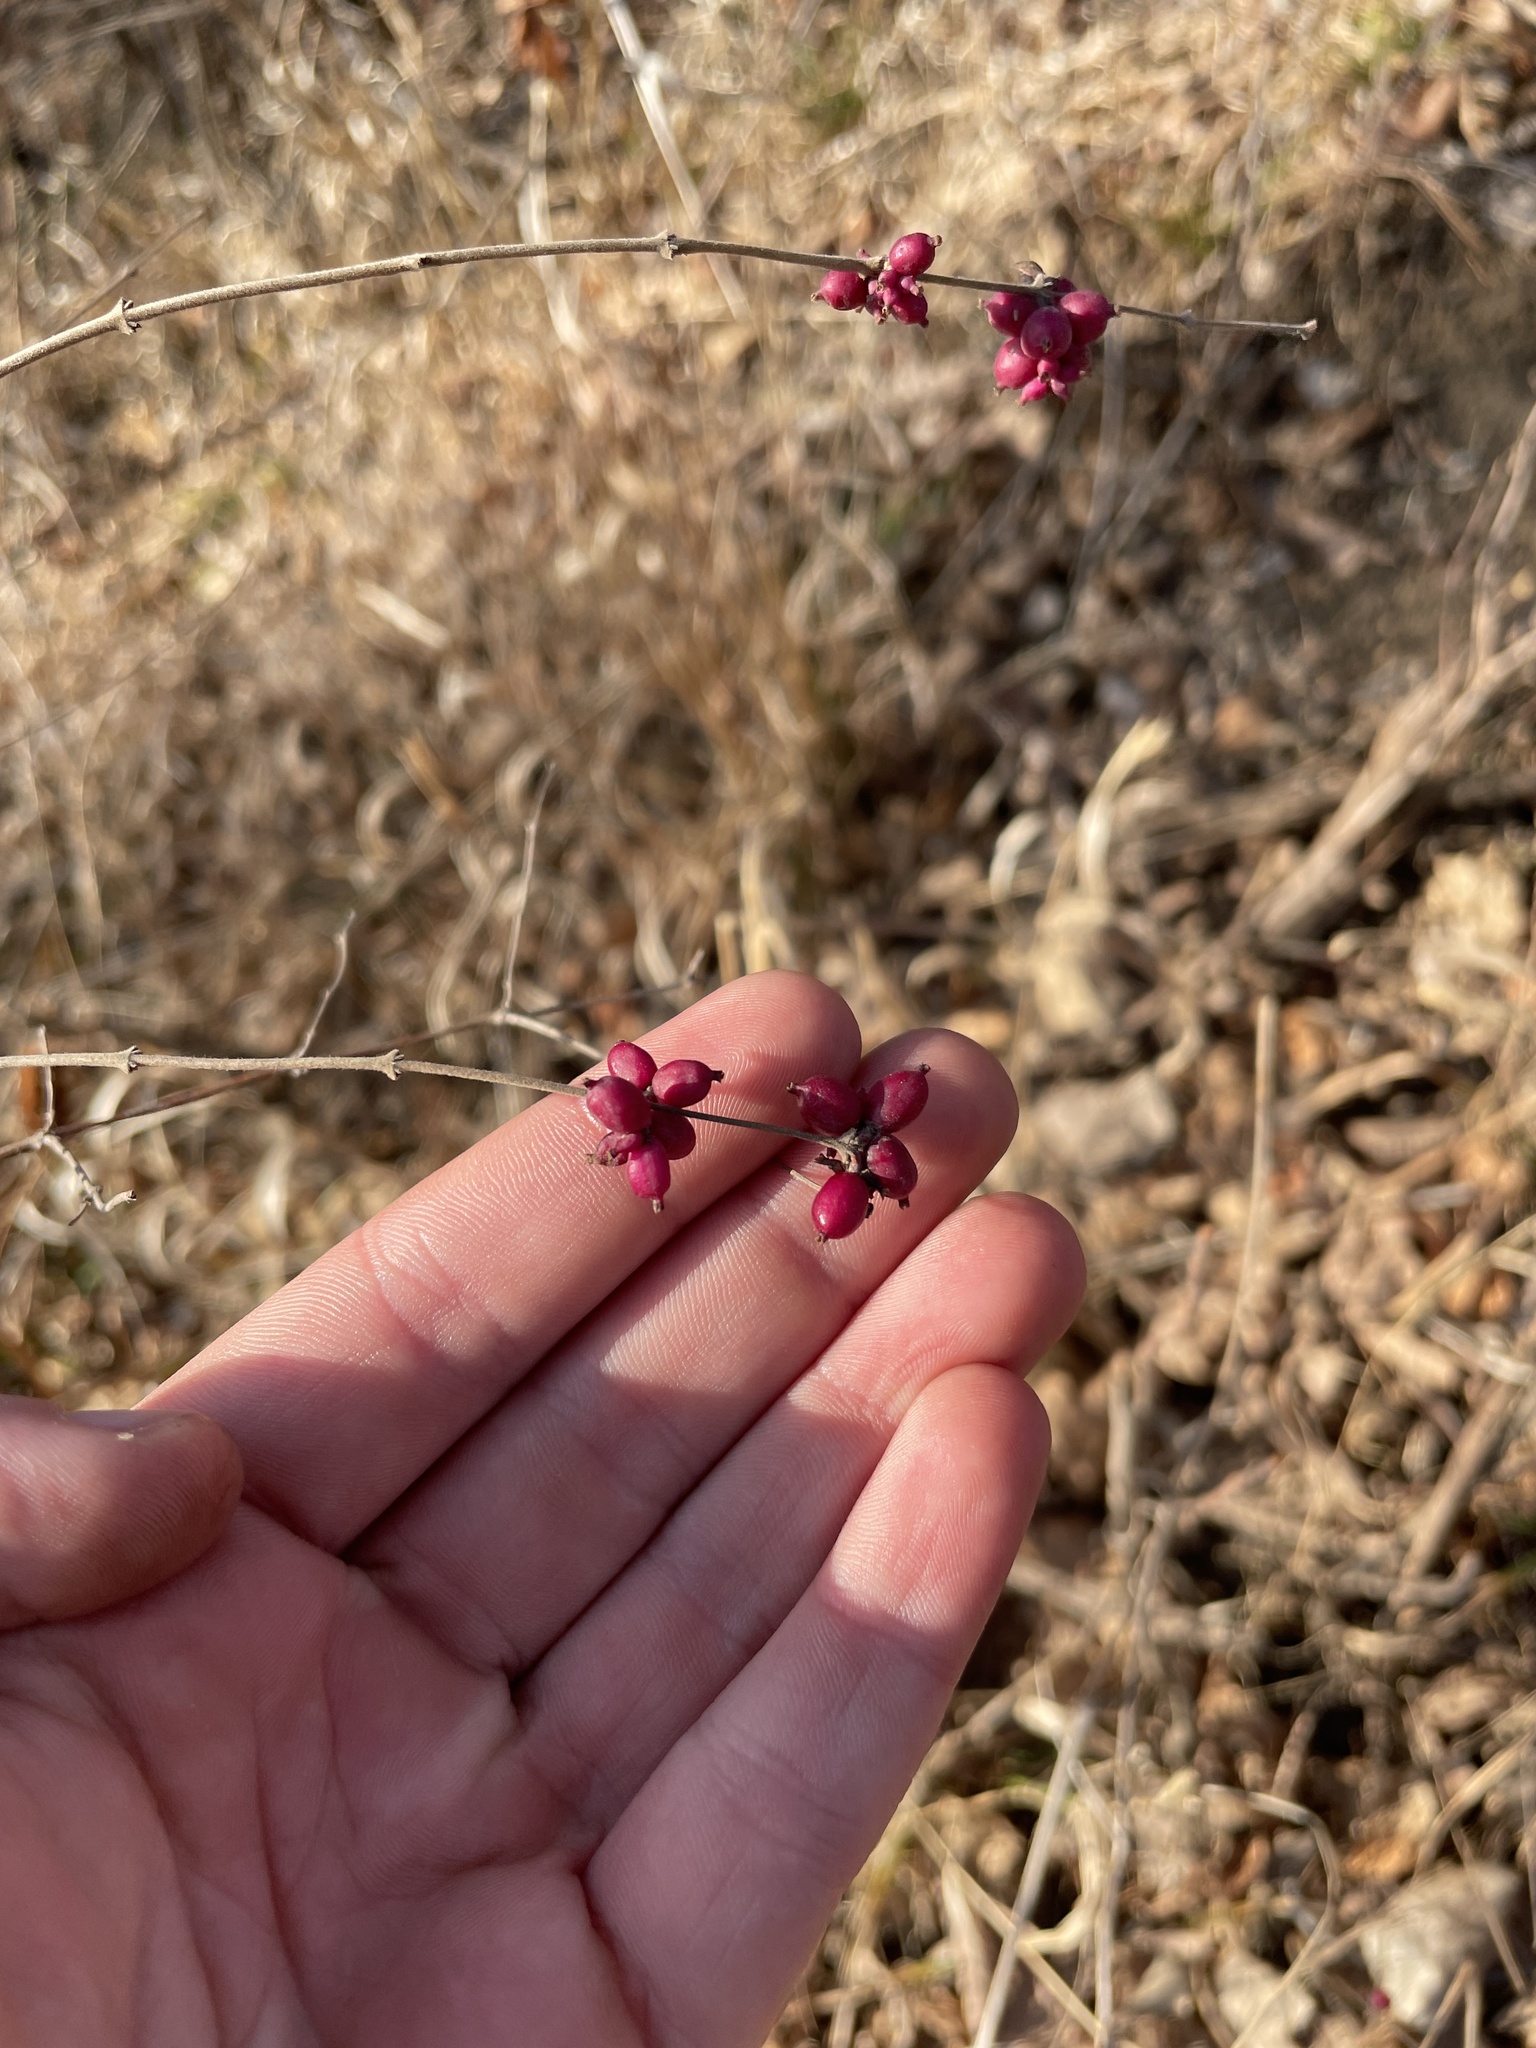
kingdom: Plantae
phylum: Tracheophyta
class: Magnoliopsida
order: Dipsacales
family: Caprifoliaceae
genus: Symphoricarpos
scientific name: Symphoricarpos orbiculatus
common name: Coralberry
